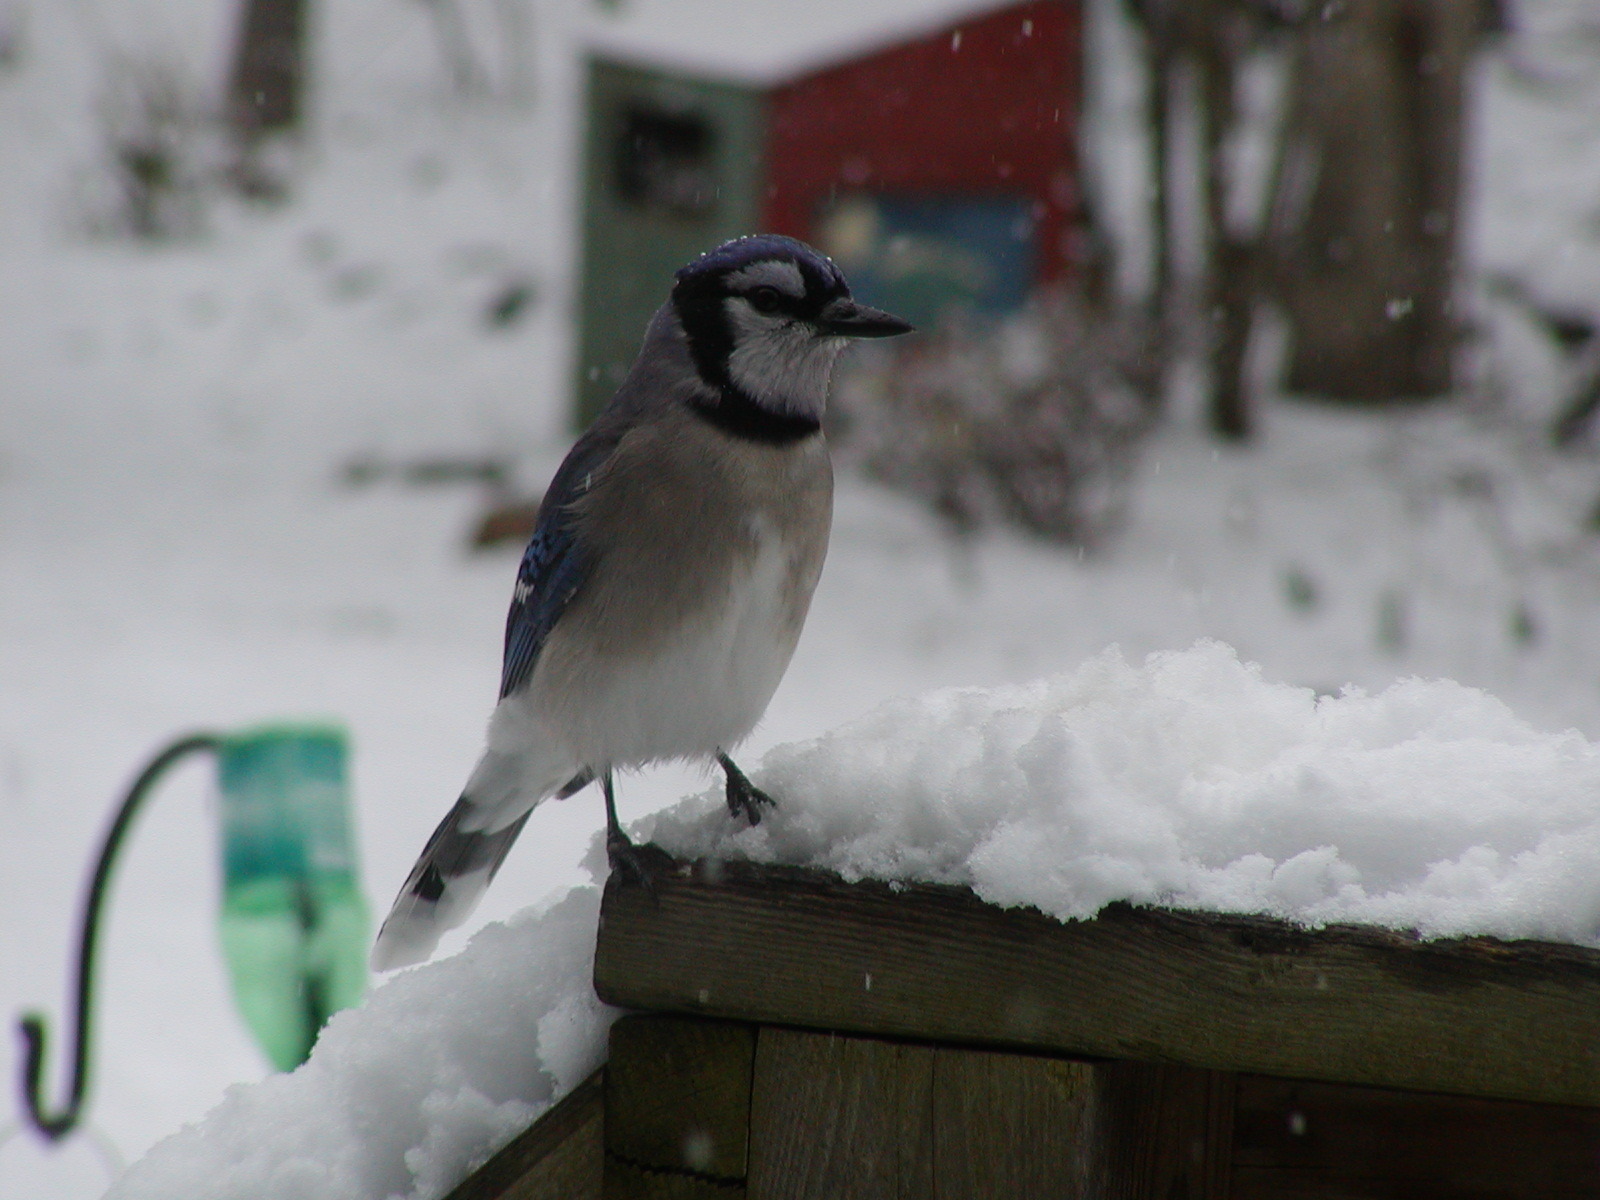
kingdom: Animalia
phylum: Chordata
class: Aves
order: Passeriformes
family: Corvidae
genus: Cyanocitta
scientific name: Cyanocitta cristata
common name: Blue jay
